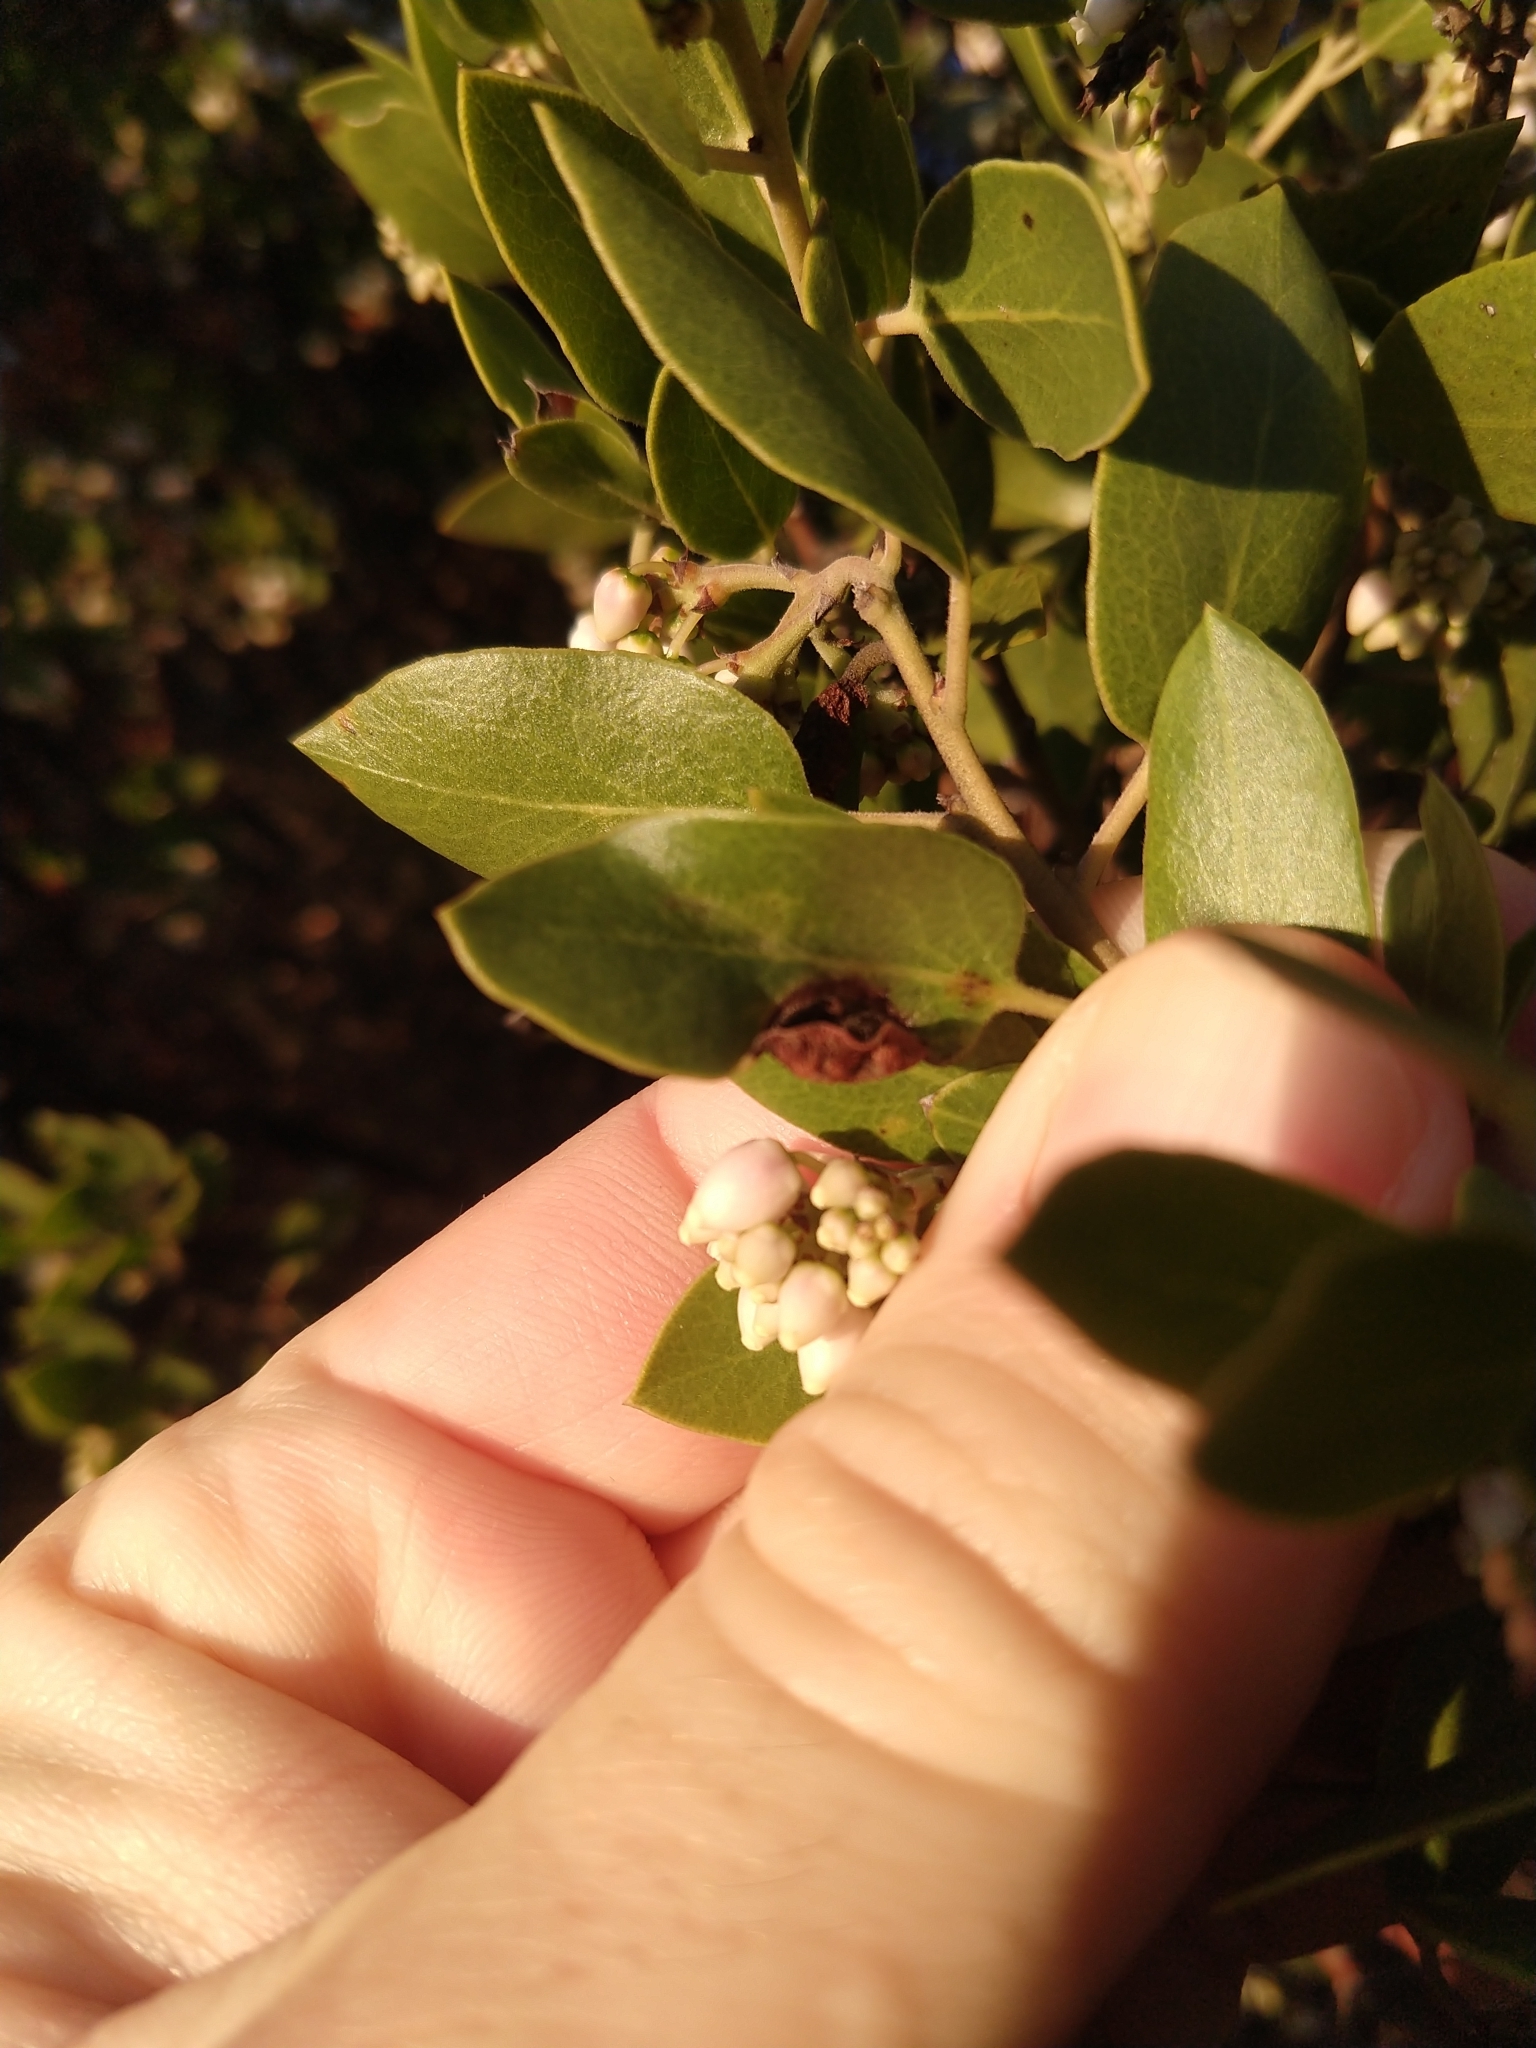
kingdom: Animalia
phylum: Arthropoda
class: Insecta
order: Hemiptera
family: Aphididae
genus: Tamalia
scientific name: Tamalia coweni
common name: Manzanita leafgall aphid
